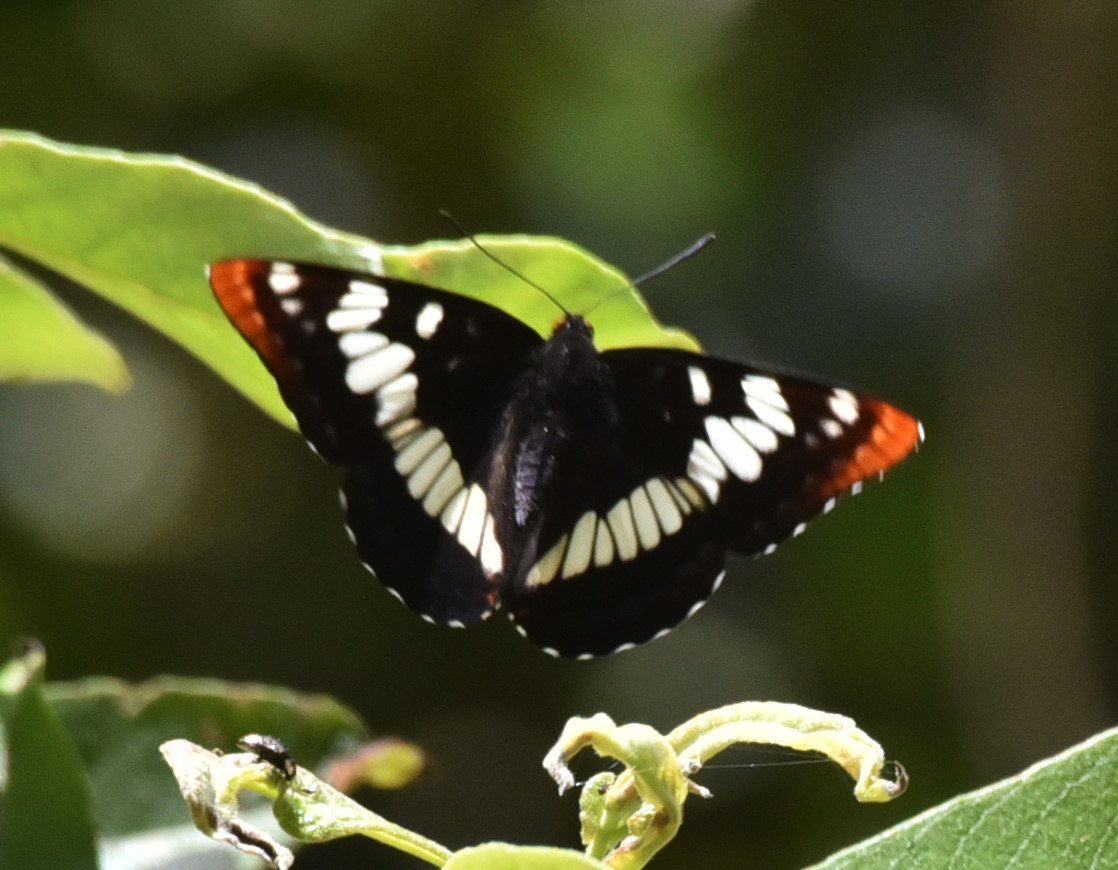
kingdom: Animalia
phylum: Arthropoda
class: Insecta
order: Lepidoptera
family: Nymphalidae
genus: Limenitis
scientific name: Limenitis lorquini
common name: Lorquin's admiral
